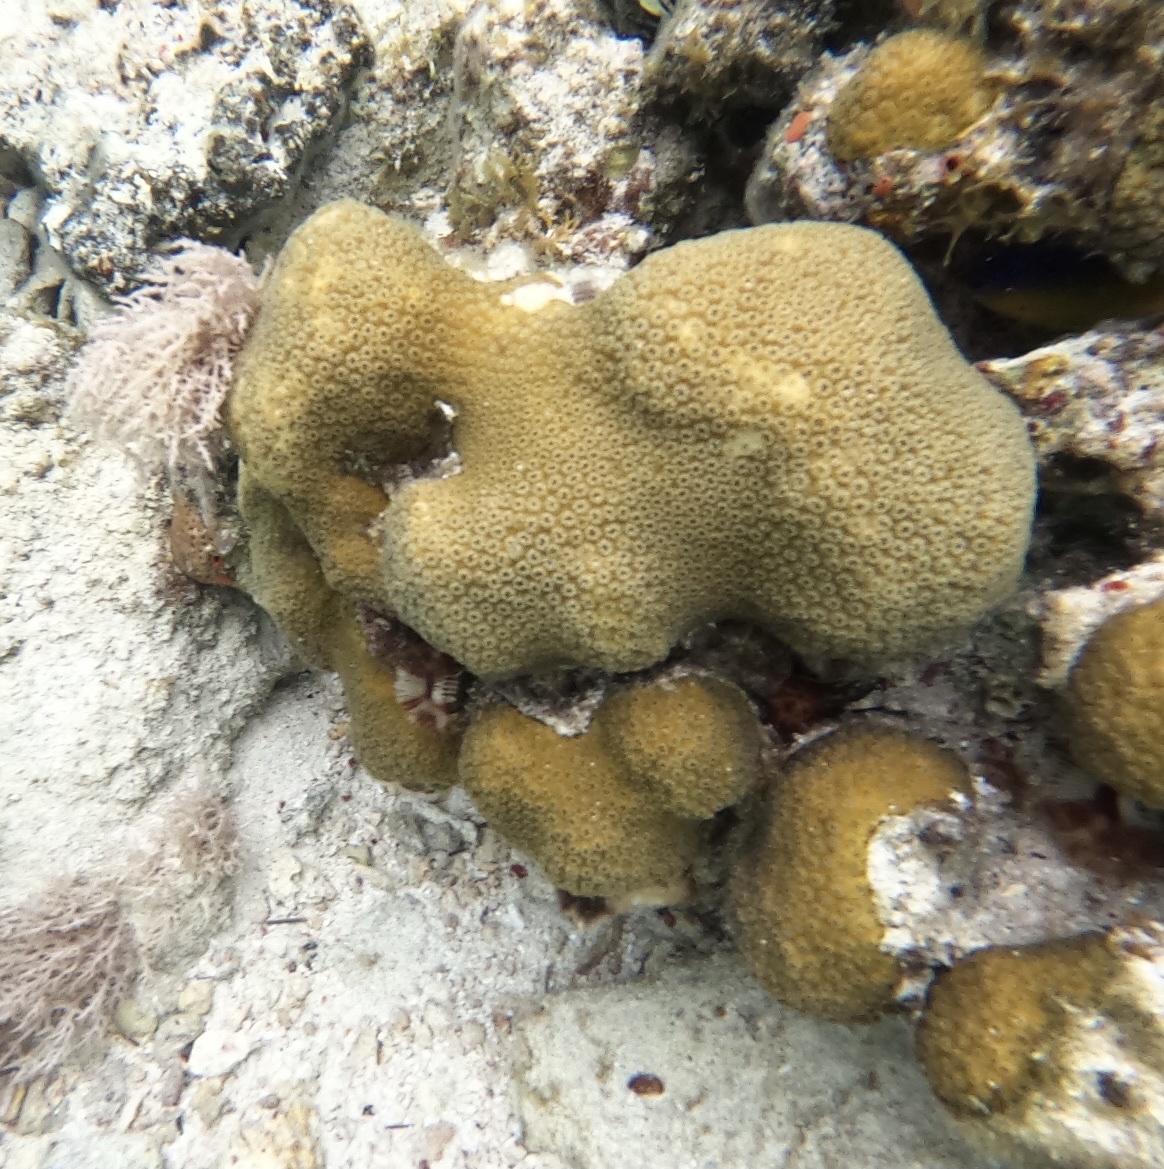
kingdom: Animalia
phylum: Cnidaria
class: Anthozoa
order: Scleractinia
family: Merulinidae
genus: Orbicella
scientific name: Orbicella annularis
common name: Boulder star coral
